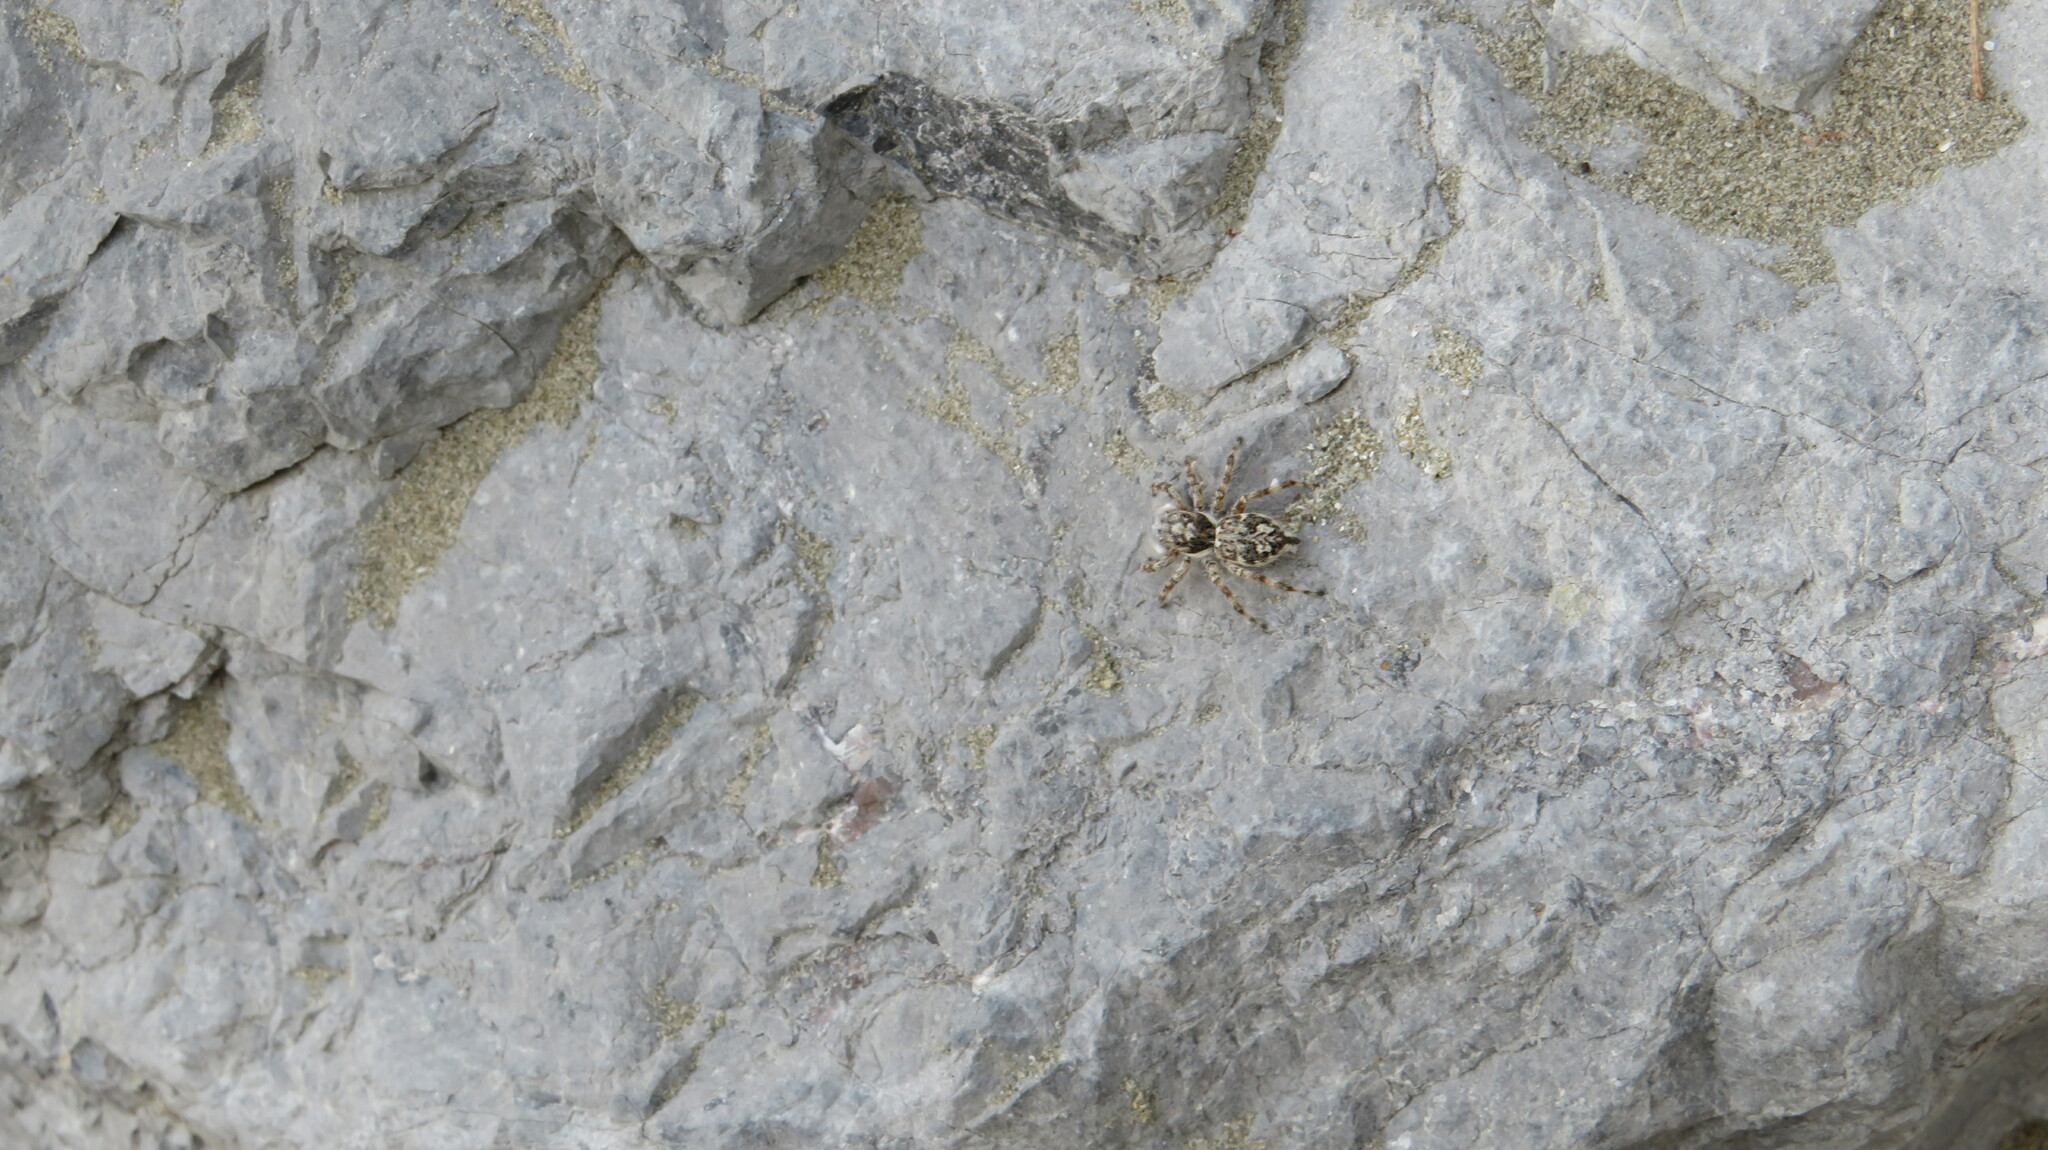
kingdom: Animalia
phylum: Arthropoda
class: Arachnida
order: Araneae
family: Salticidae
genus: Menemerus
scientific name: Menemerus nigli
